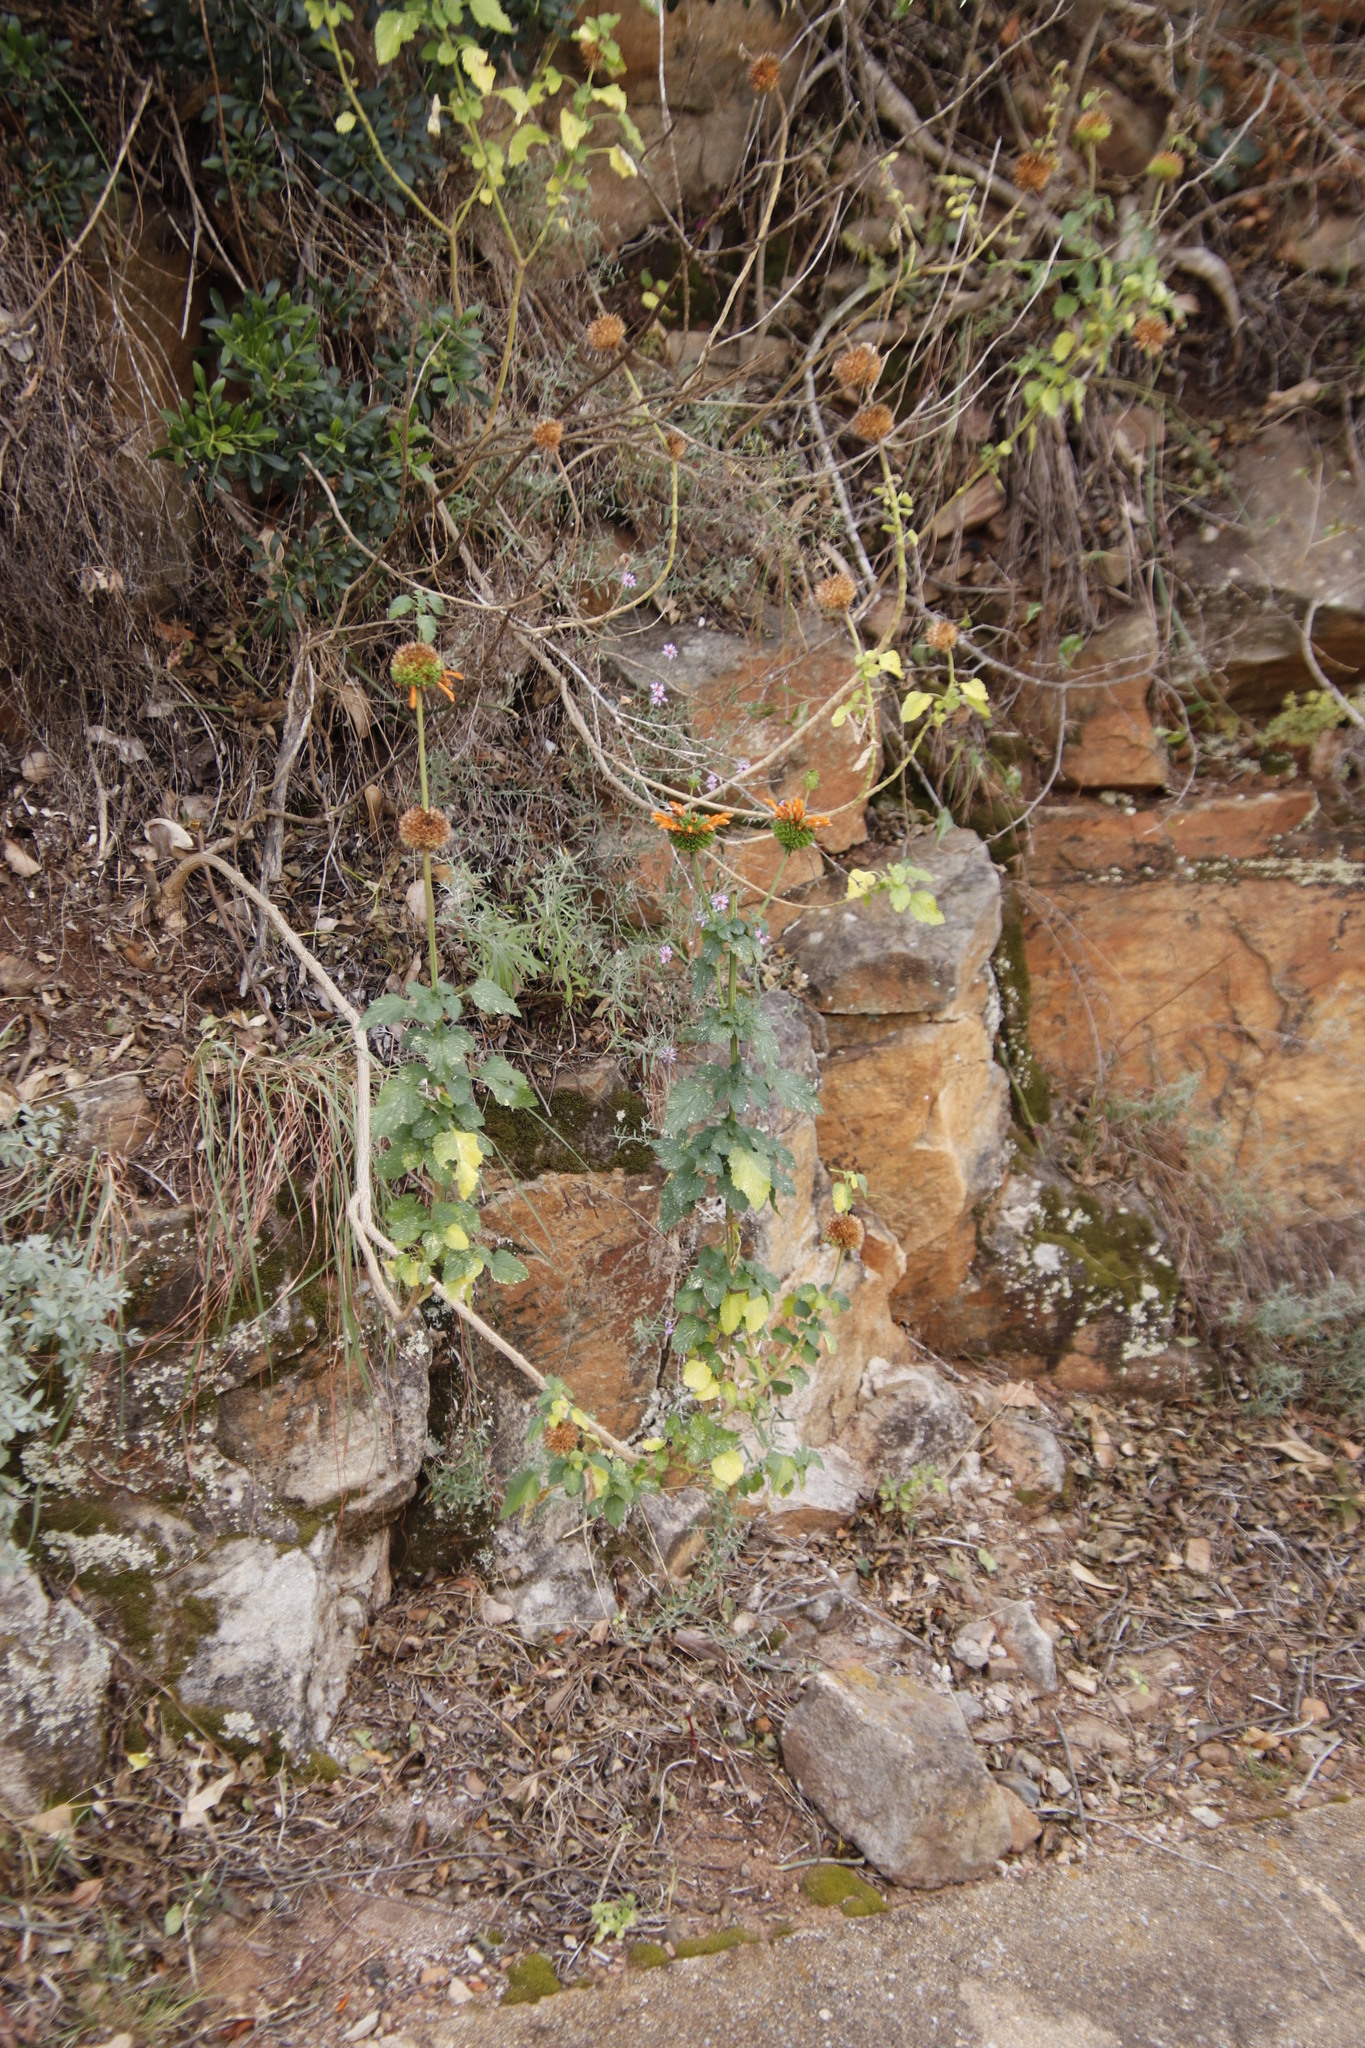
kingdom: Plantae
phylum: Tracheophyta
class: Magnoliopsida
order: Lamiales
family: Lamiaceae
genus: Leonotis
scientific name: Leonotis ocymifolia
